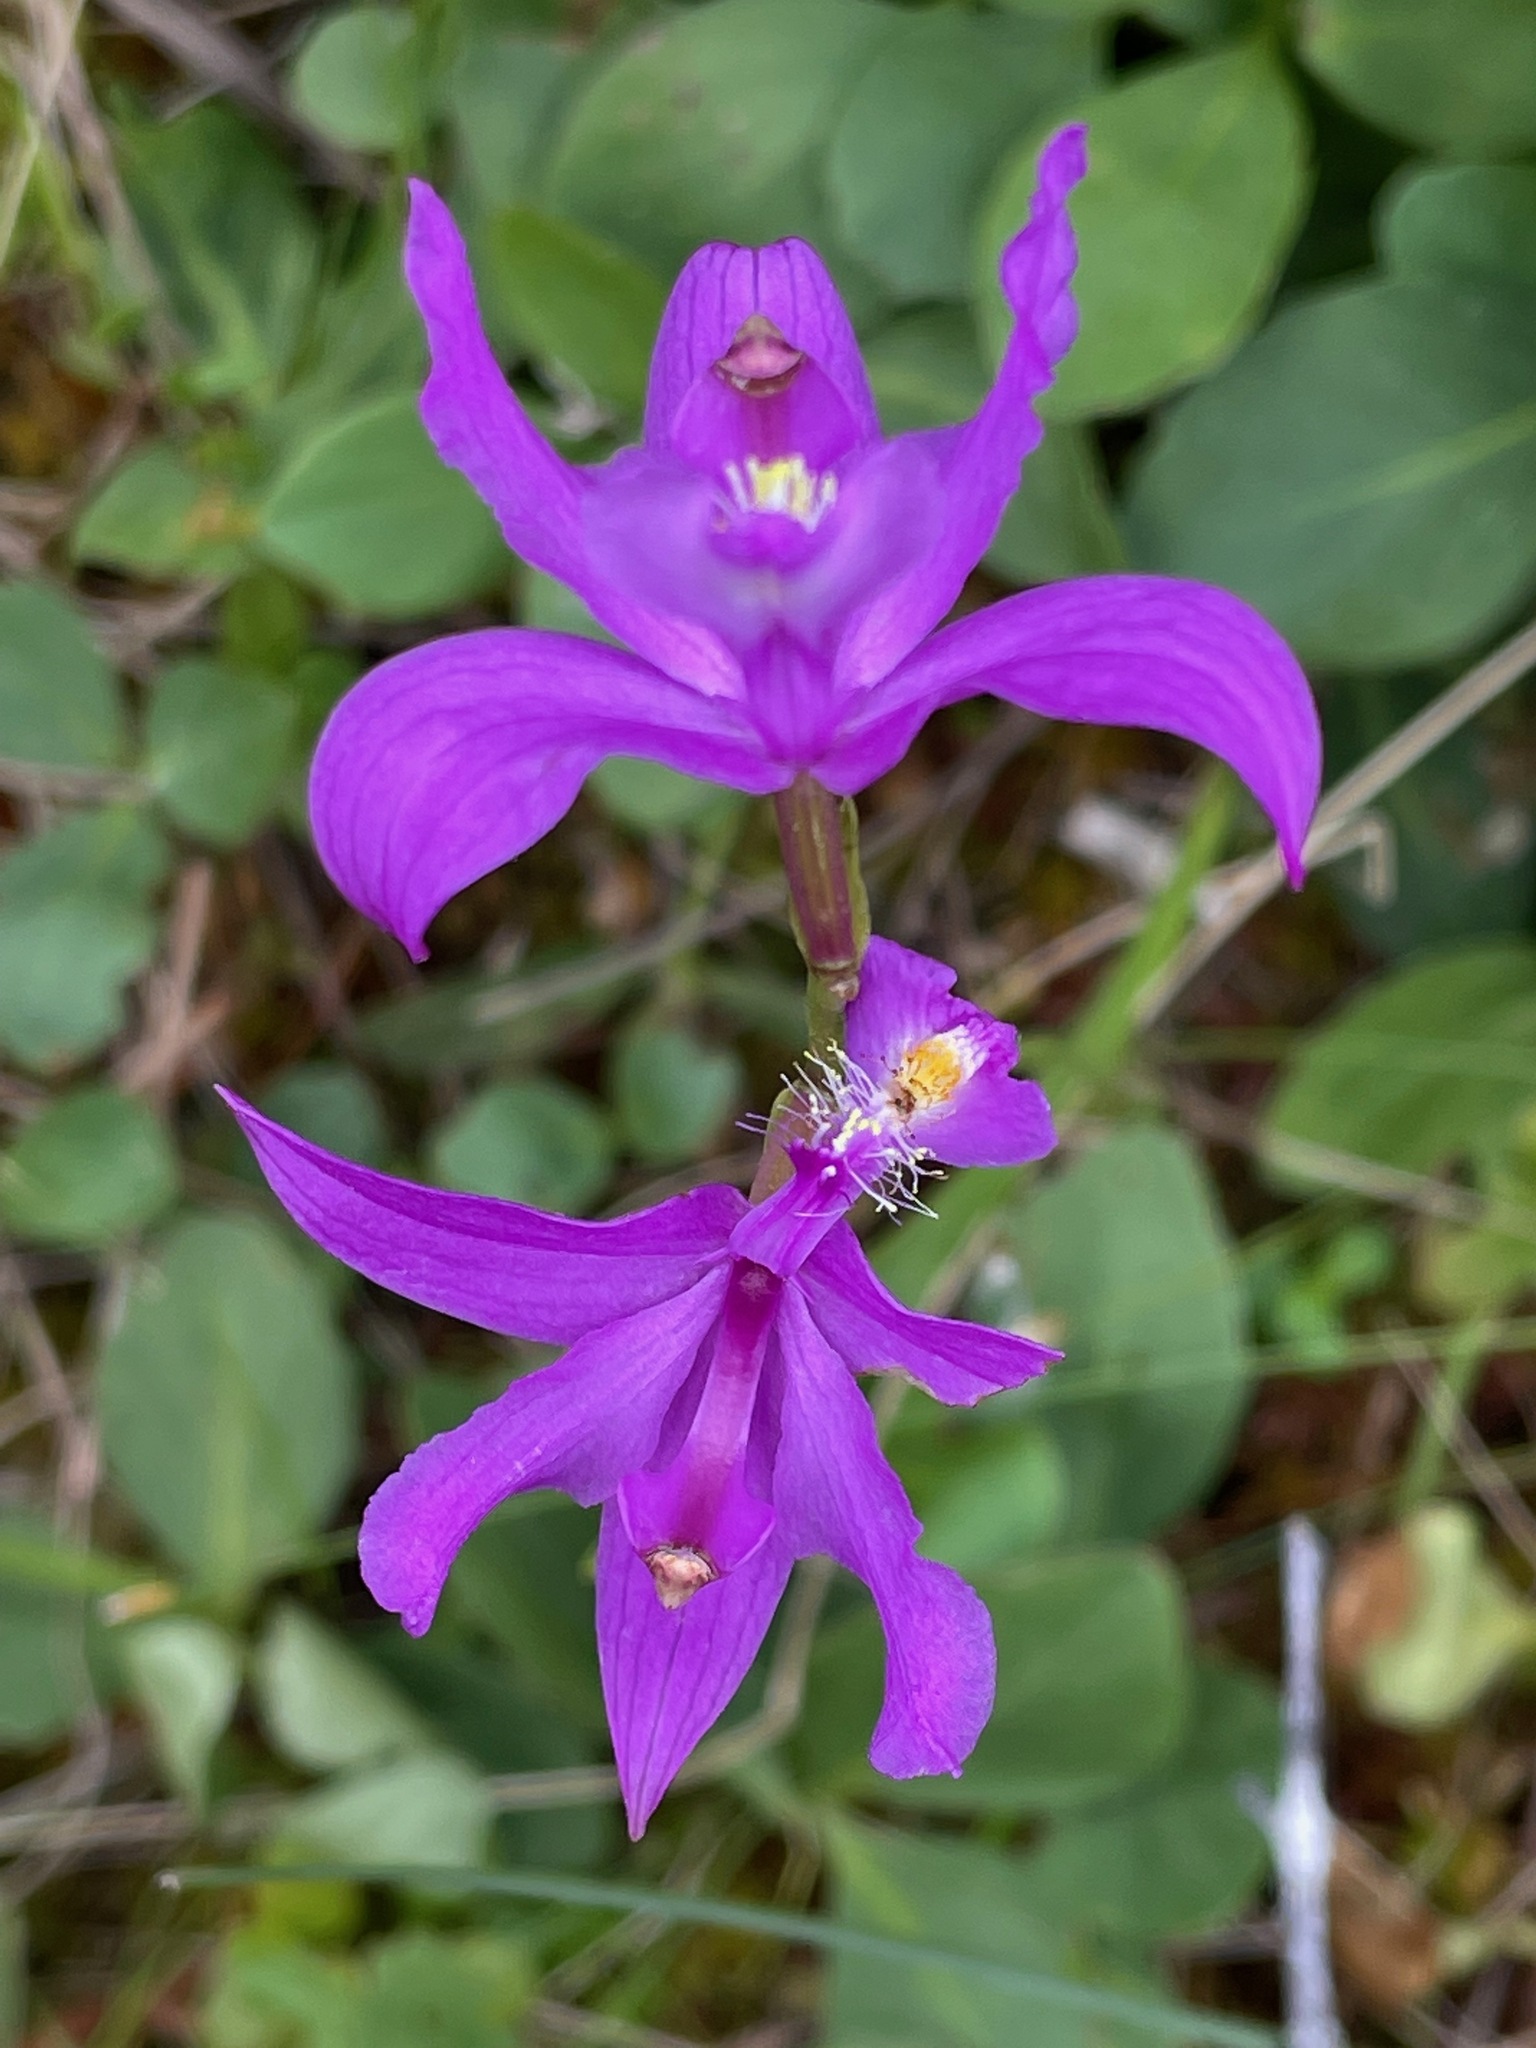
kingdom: Plantae
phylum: Tracheophyta
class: Liliopsida
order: Asparagales
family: Orchidaceae
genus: Calopogon
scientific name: Calopogon tuberosus
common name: Grass-pink
